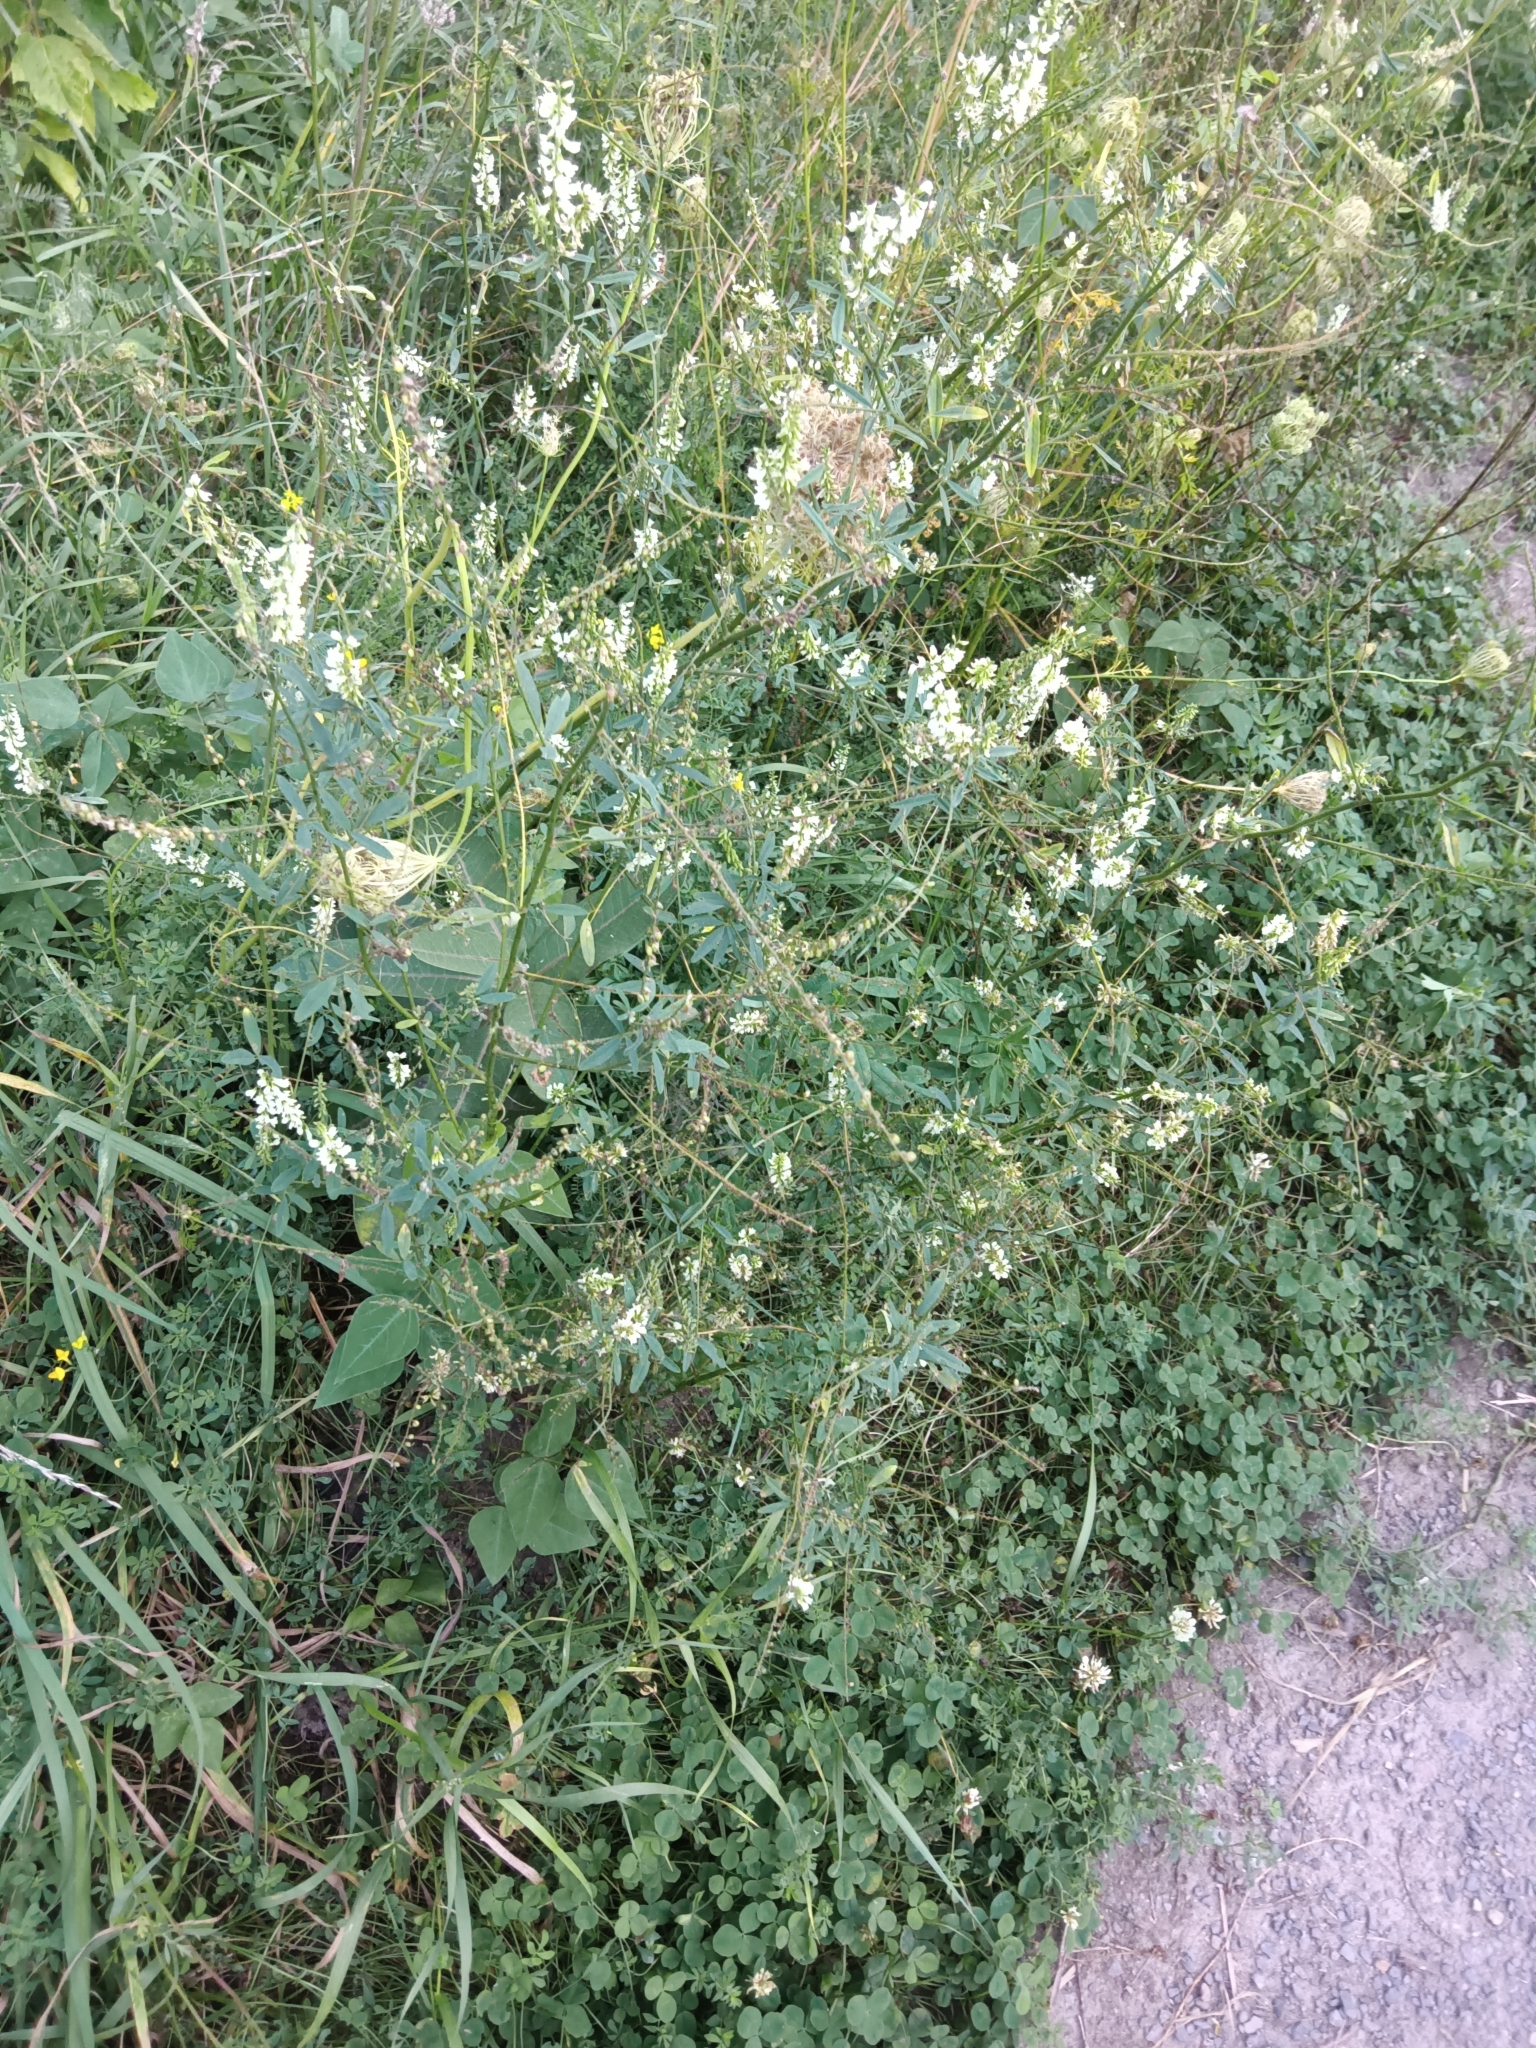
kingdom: Plantae
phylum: Tracheophyta
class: Magnoliopsida
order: Fabales
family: Fabaceae
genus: Melilotus
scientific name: Melilotus albus
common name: White melilot
